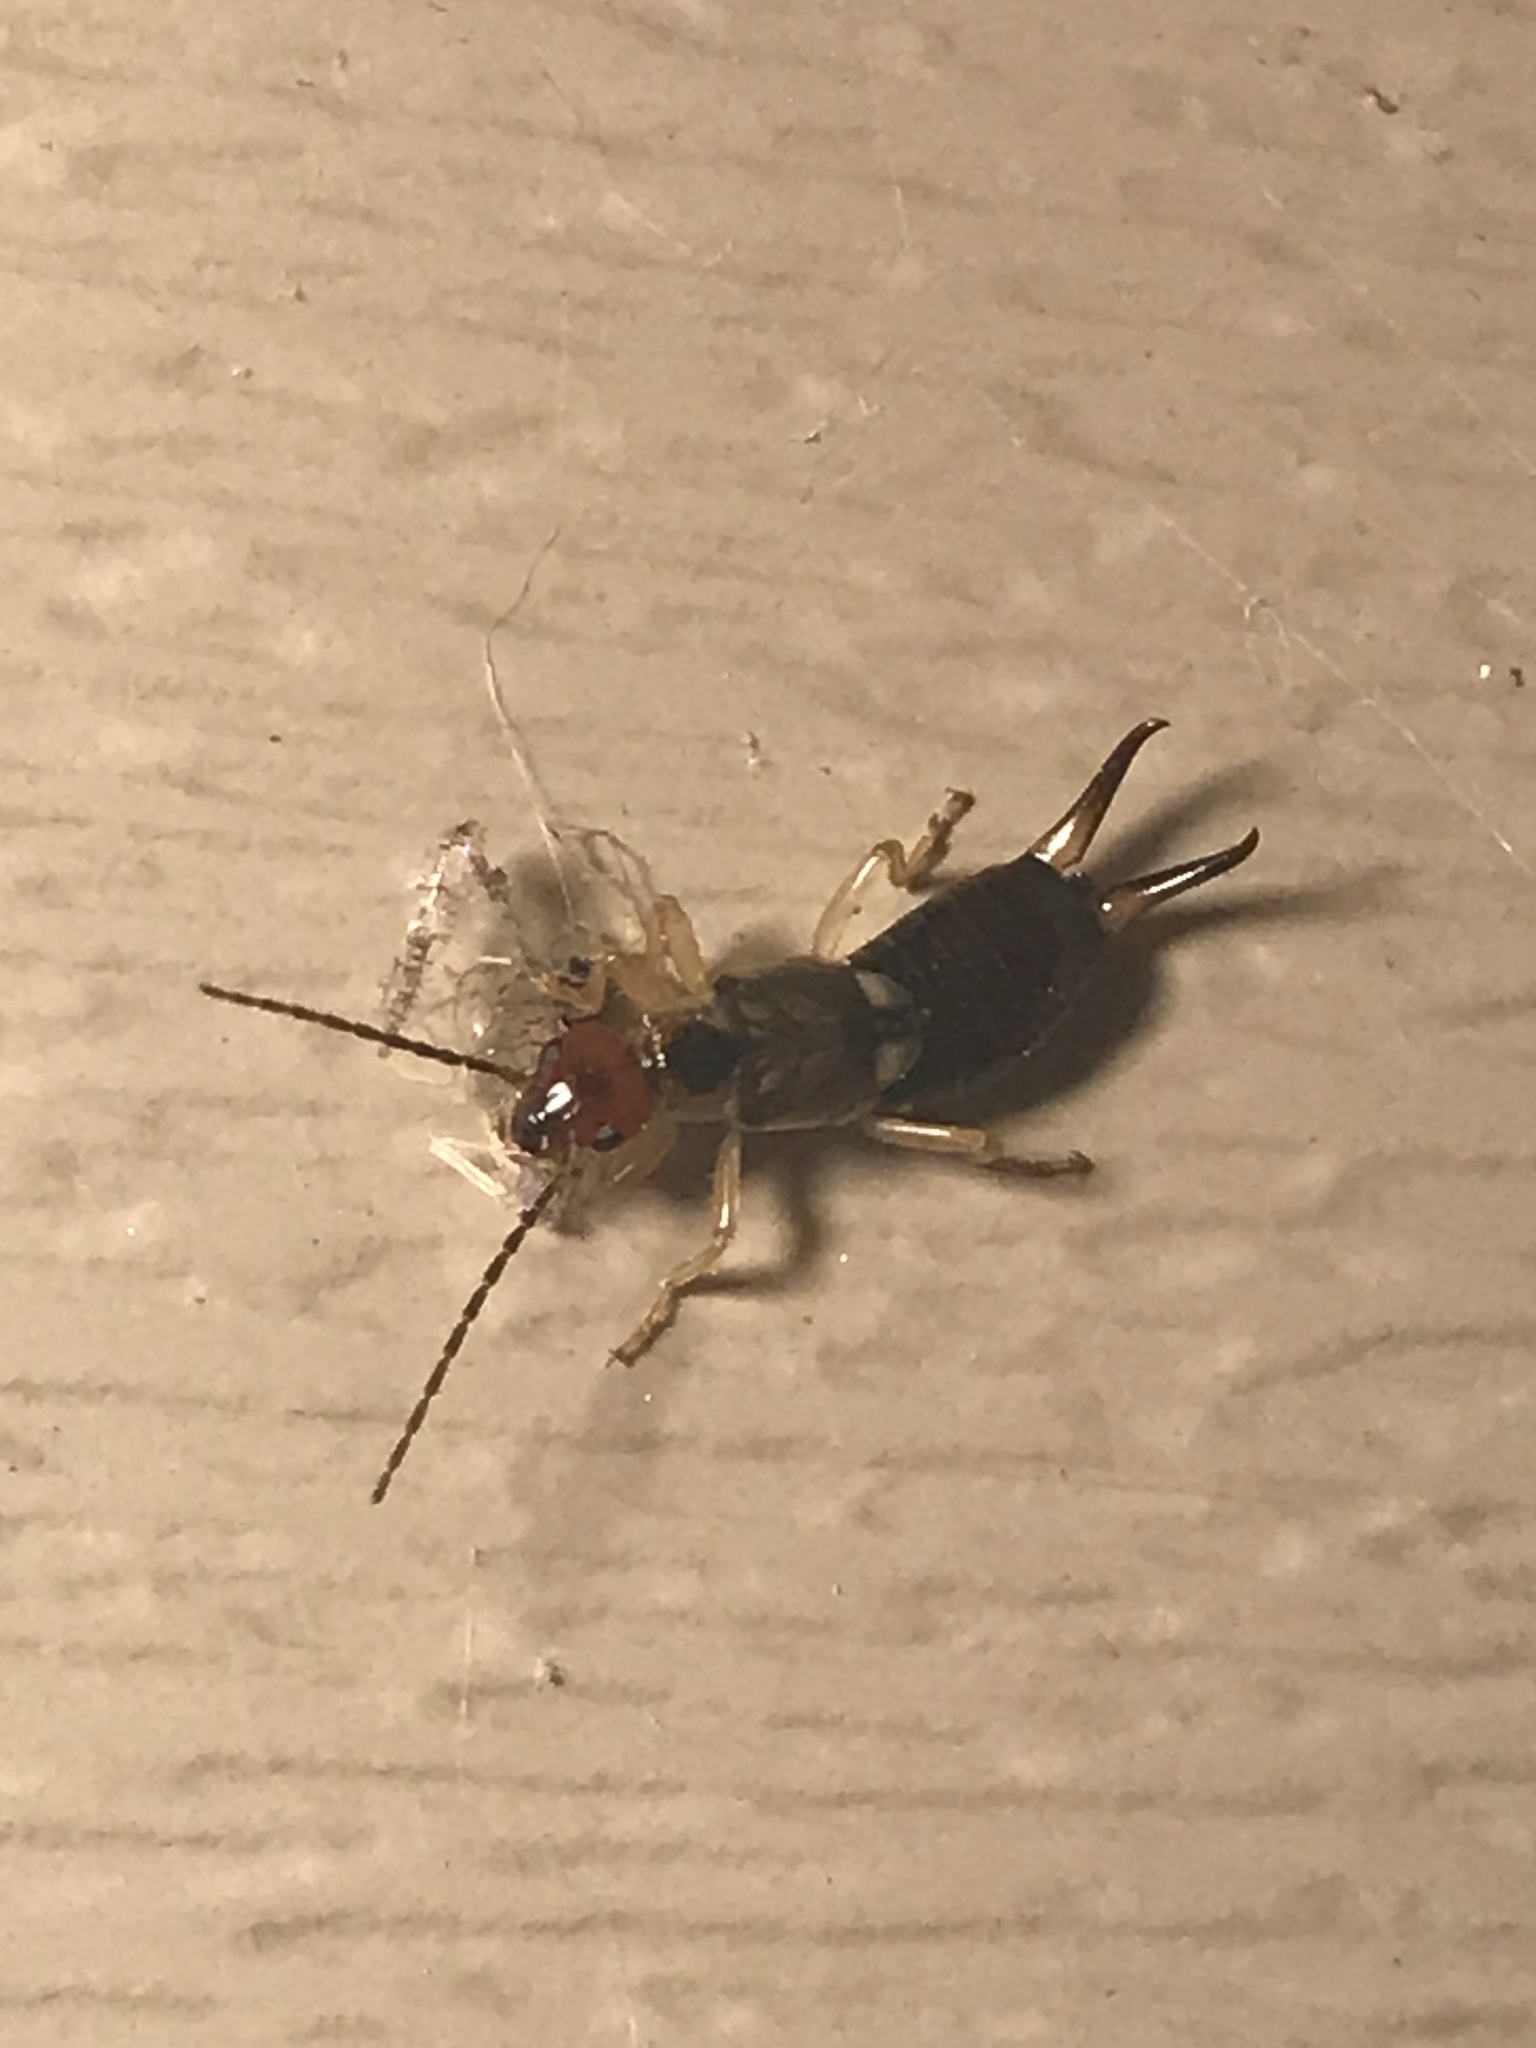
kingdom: Animalia
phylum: Arthropoda
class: Insecta
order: Dermaptera
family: Forficulidae
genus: Forficula
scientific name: Forficula
